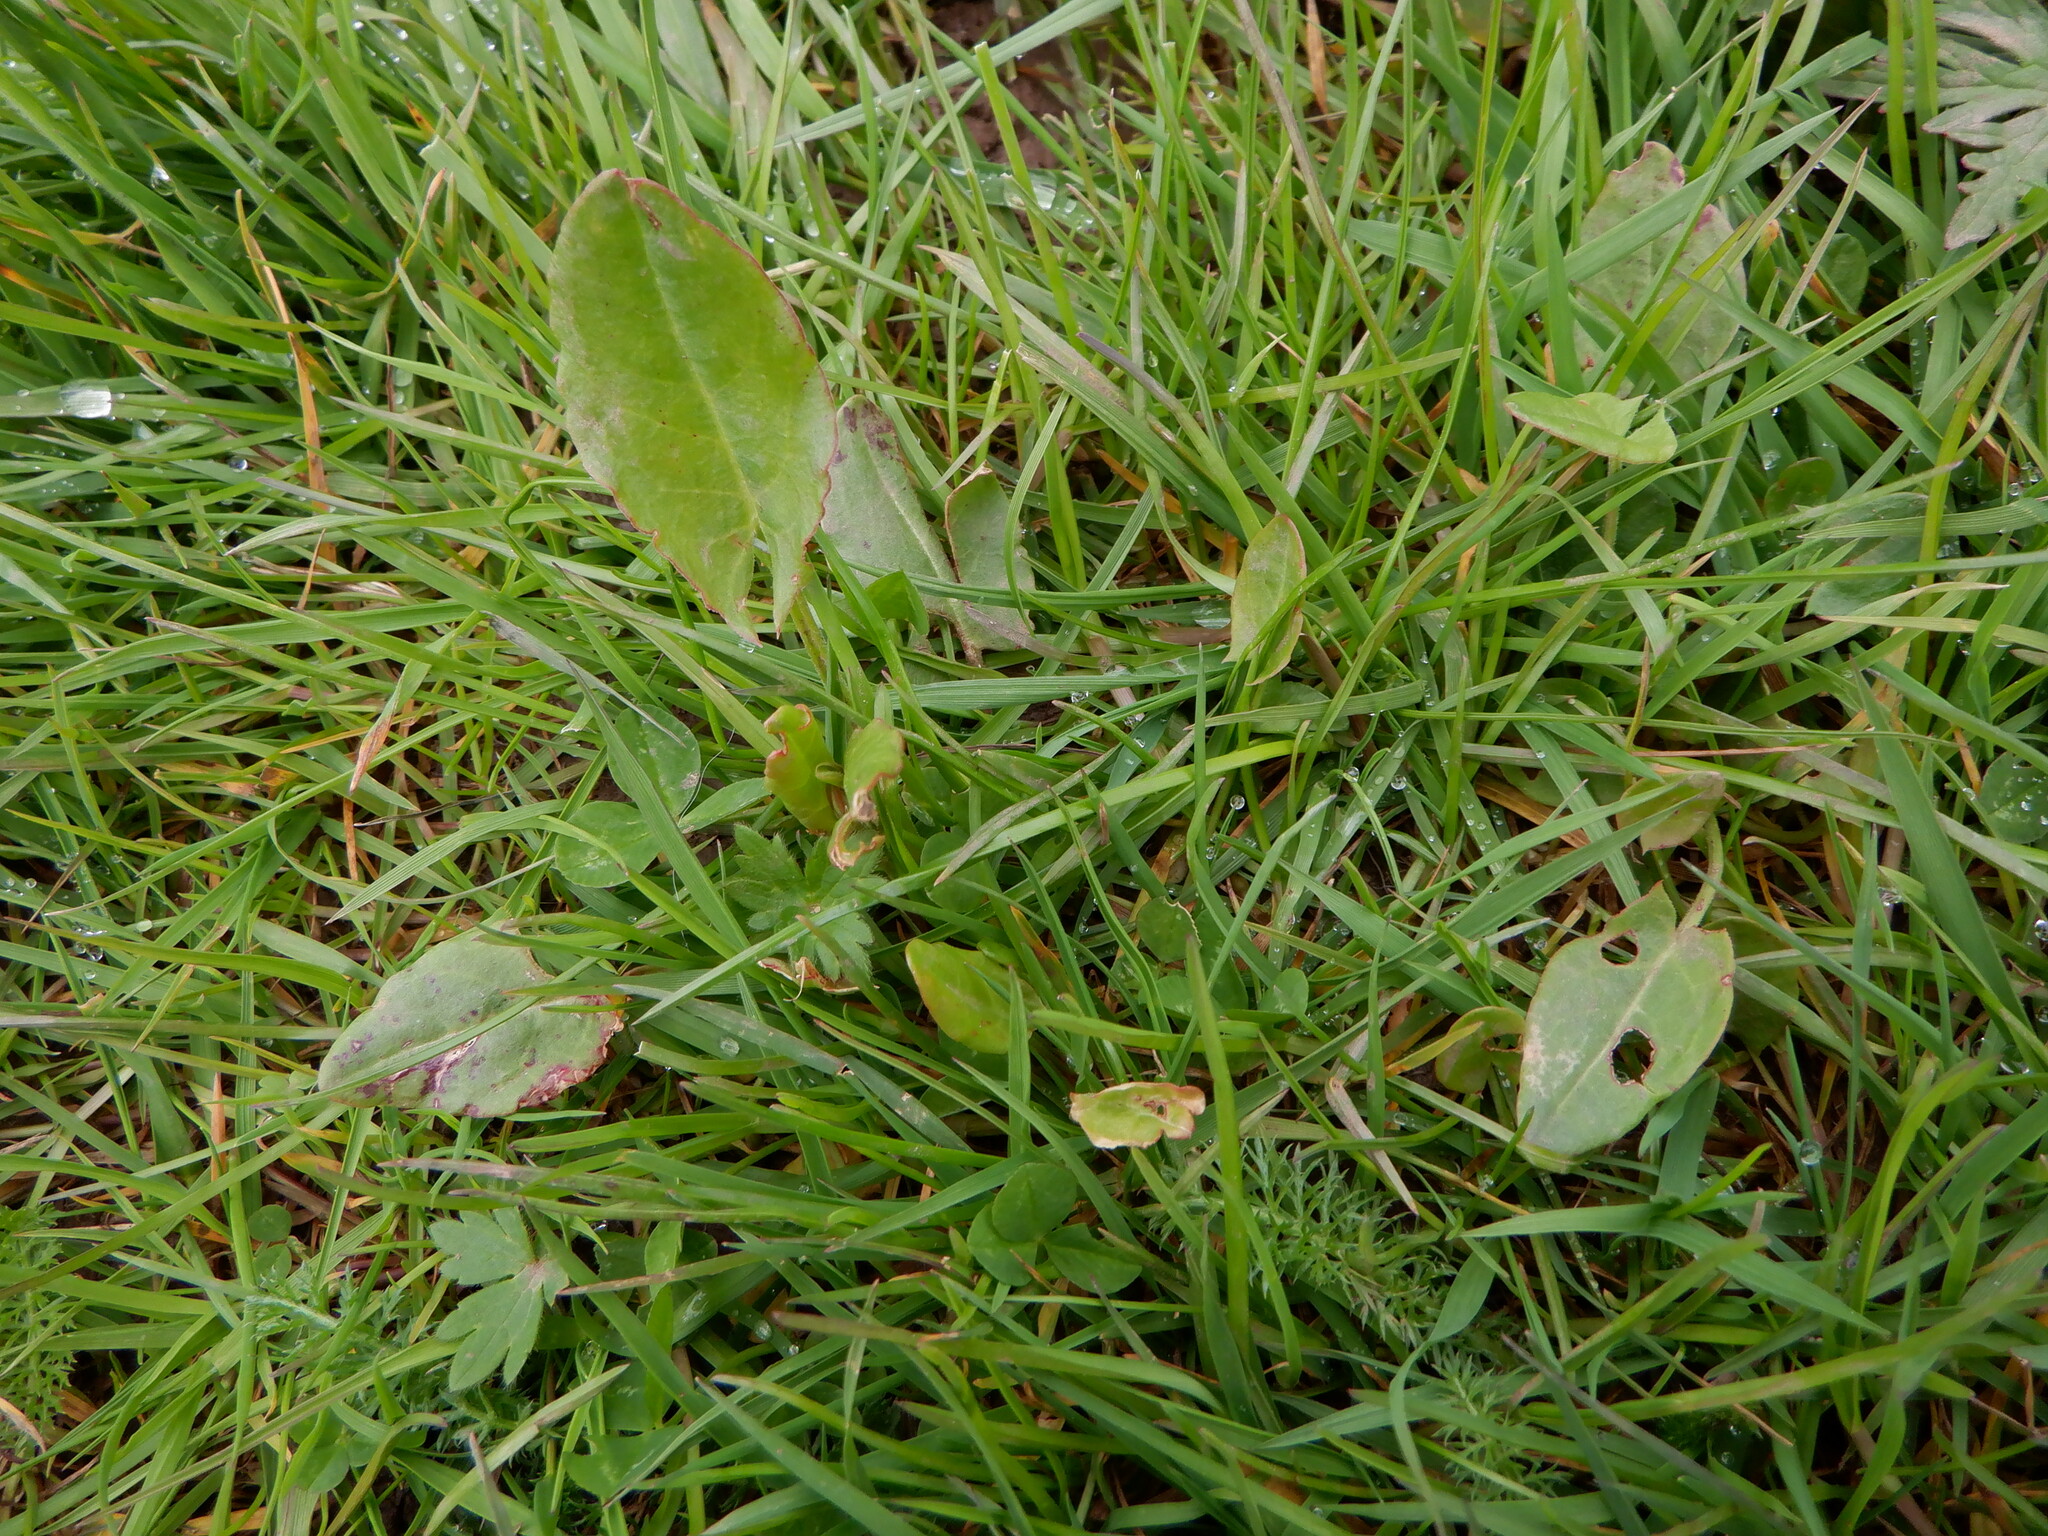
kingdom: Plantae
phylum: Tracheophyta
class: Magnoliopsida
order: Caryophyllales
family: Polygonaceae
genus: Rumex
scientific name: Rumex acetosa
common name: Garden sorrel
